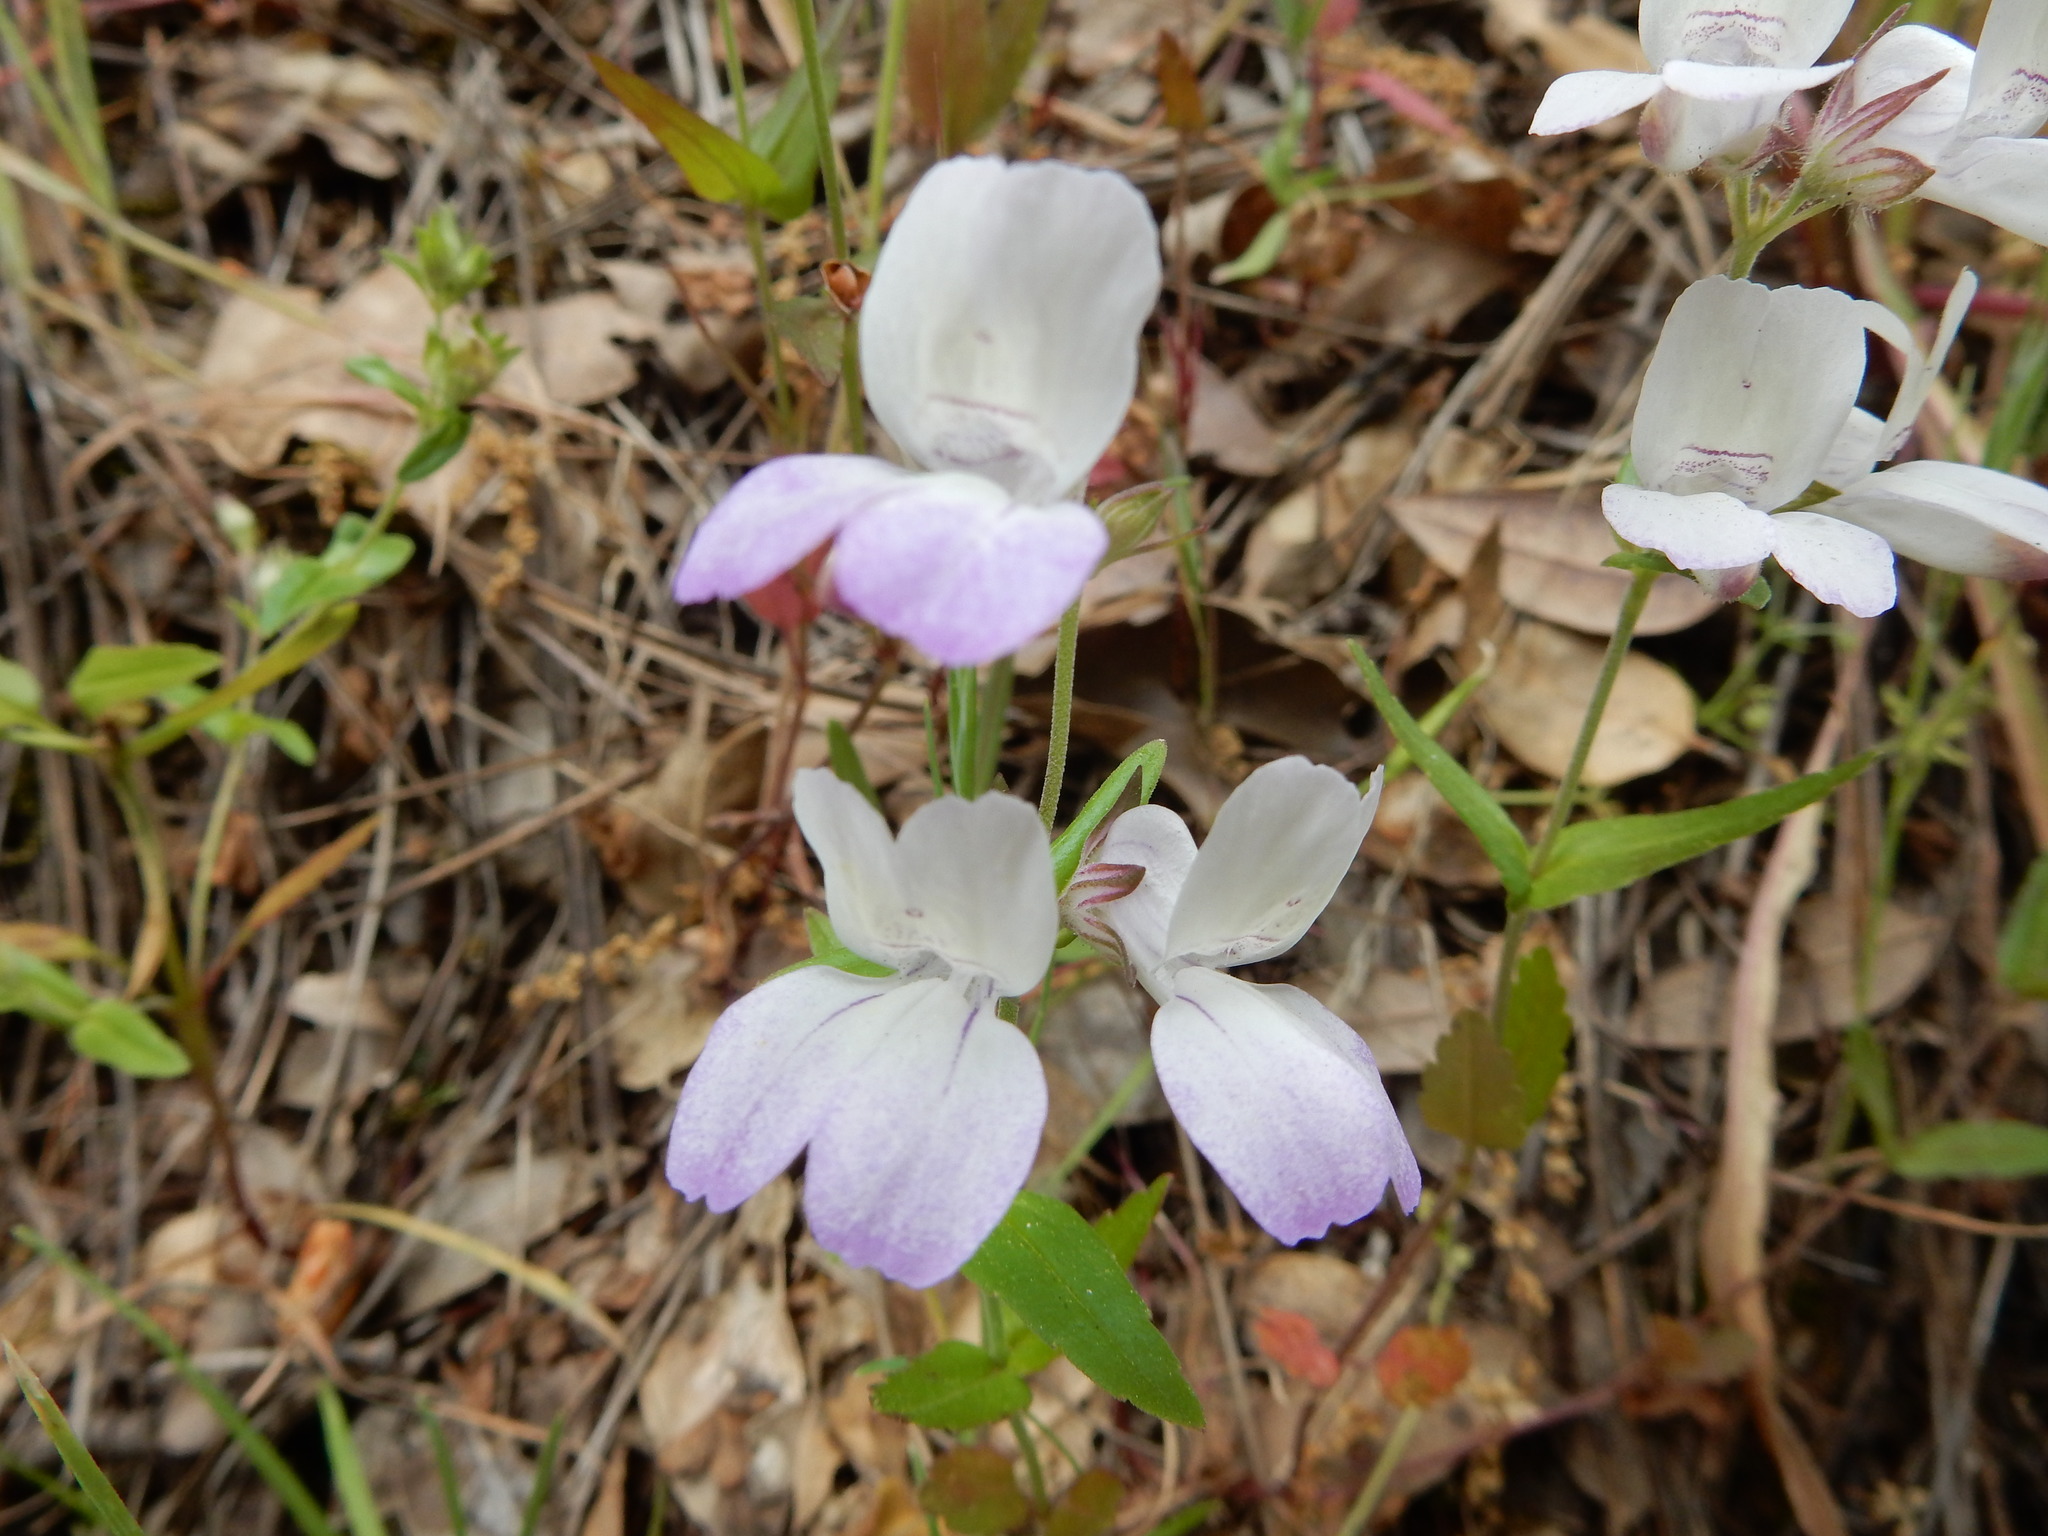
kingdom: Plantae
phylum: Tracheophyta
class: Magnoliopsida
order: Lamiales
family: Plantaginaceae
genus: Collinsia
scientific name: Collinsia heterophylla
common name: Chinese-houses
